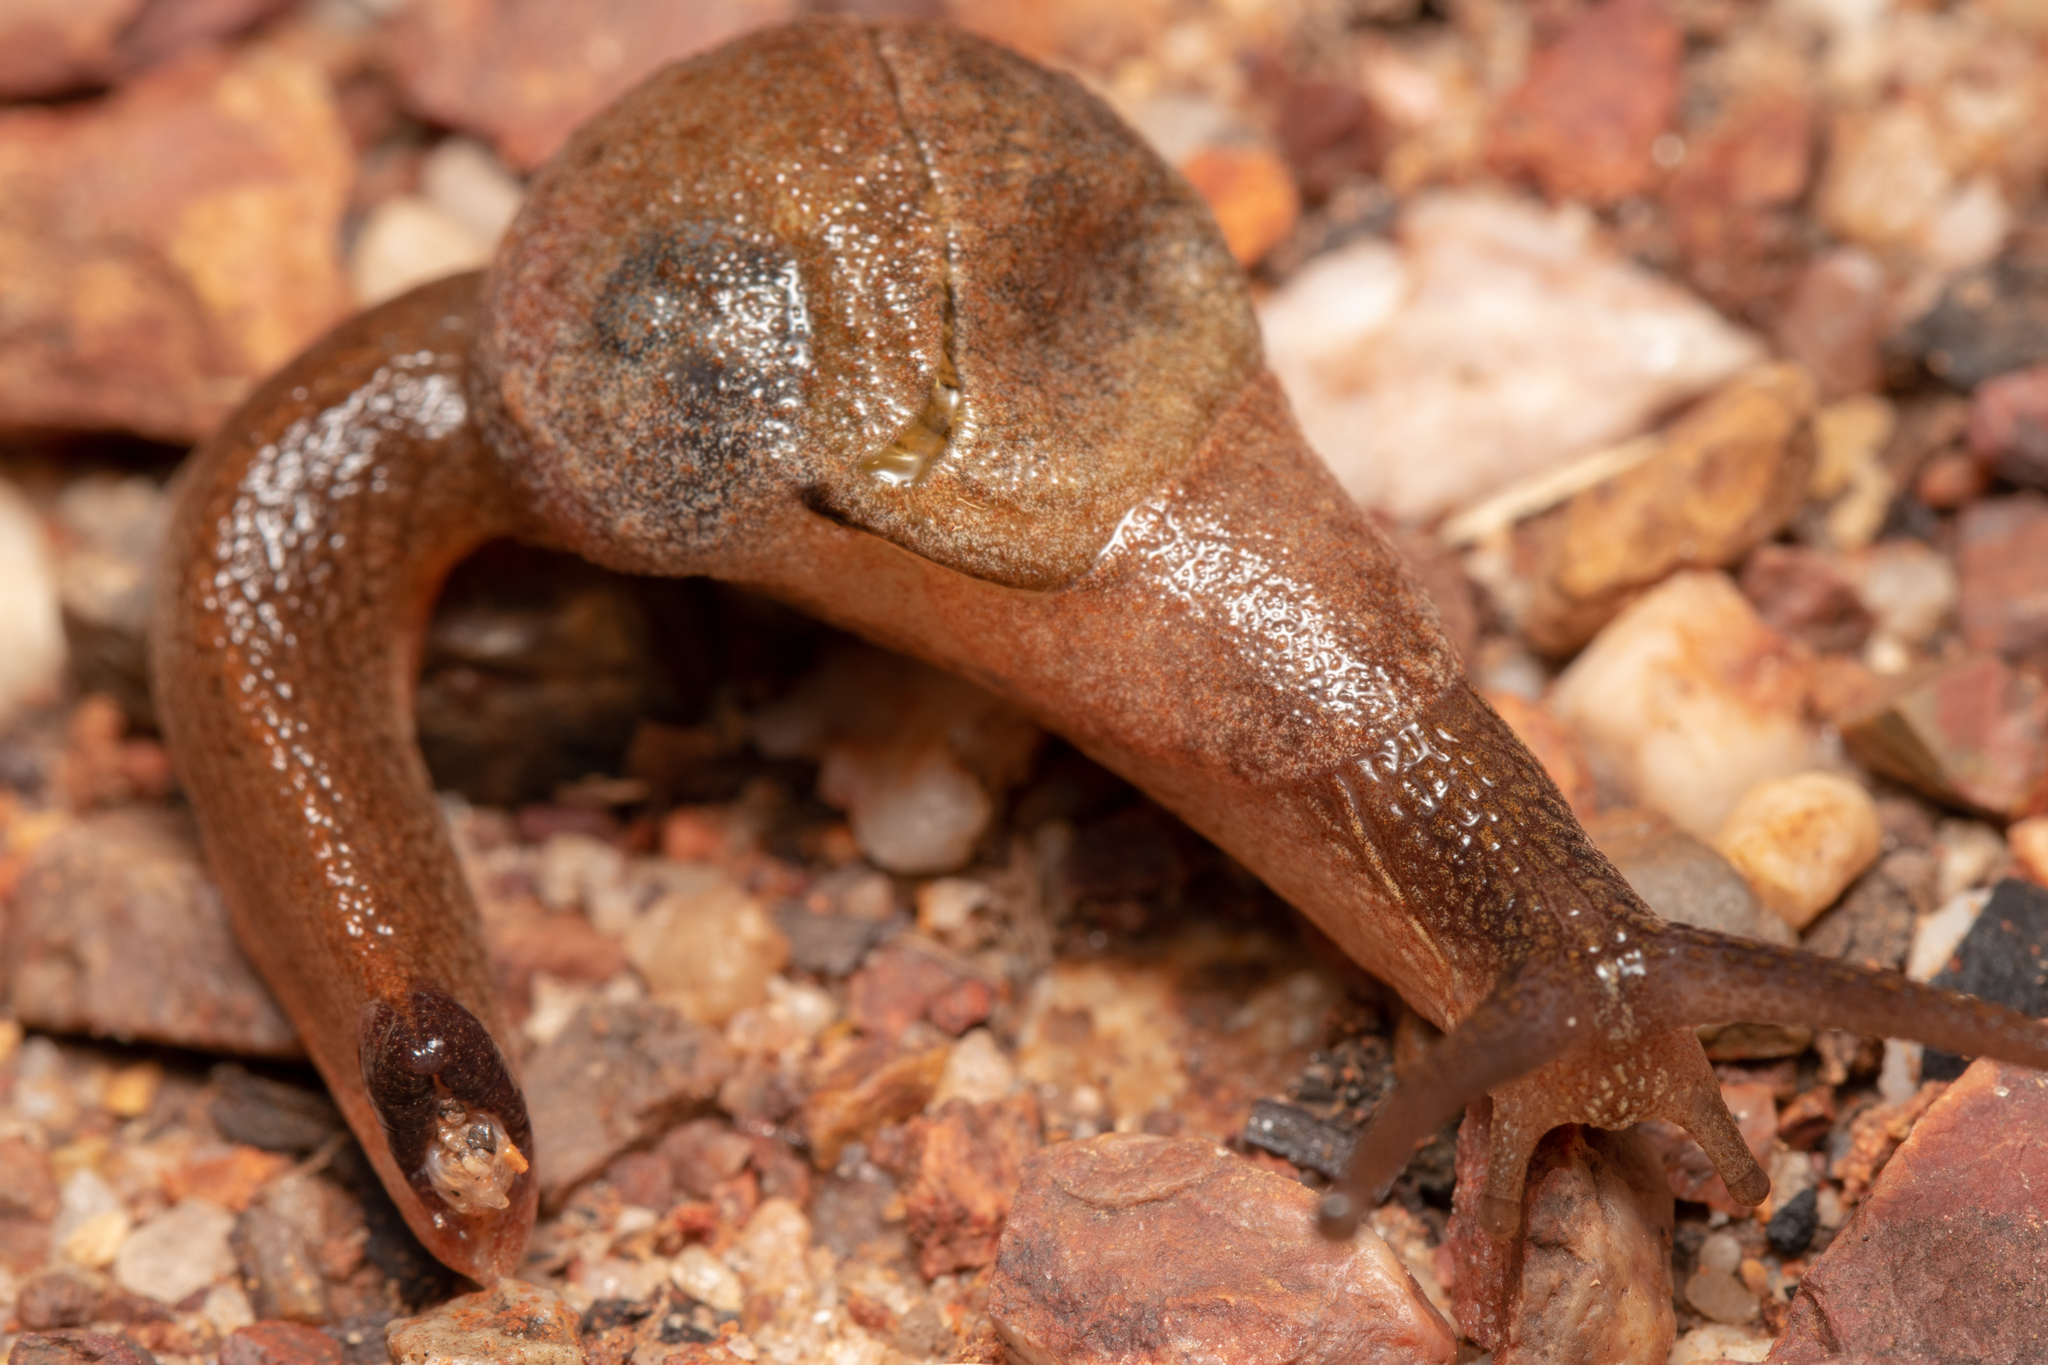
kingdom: Animalia
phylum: Mollusca
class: Gastropoda
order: Stylommatophora
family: Helicarionidae
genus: Stanisicarion
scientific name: Stanisicarion freycineti
